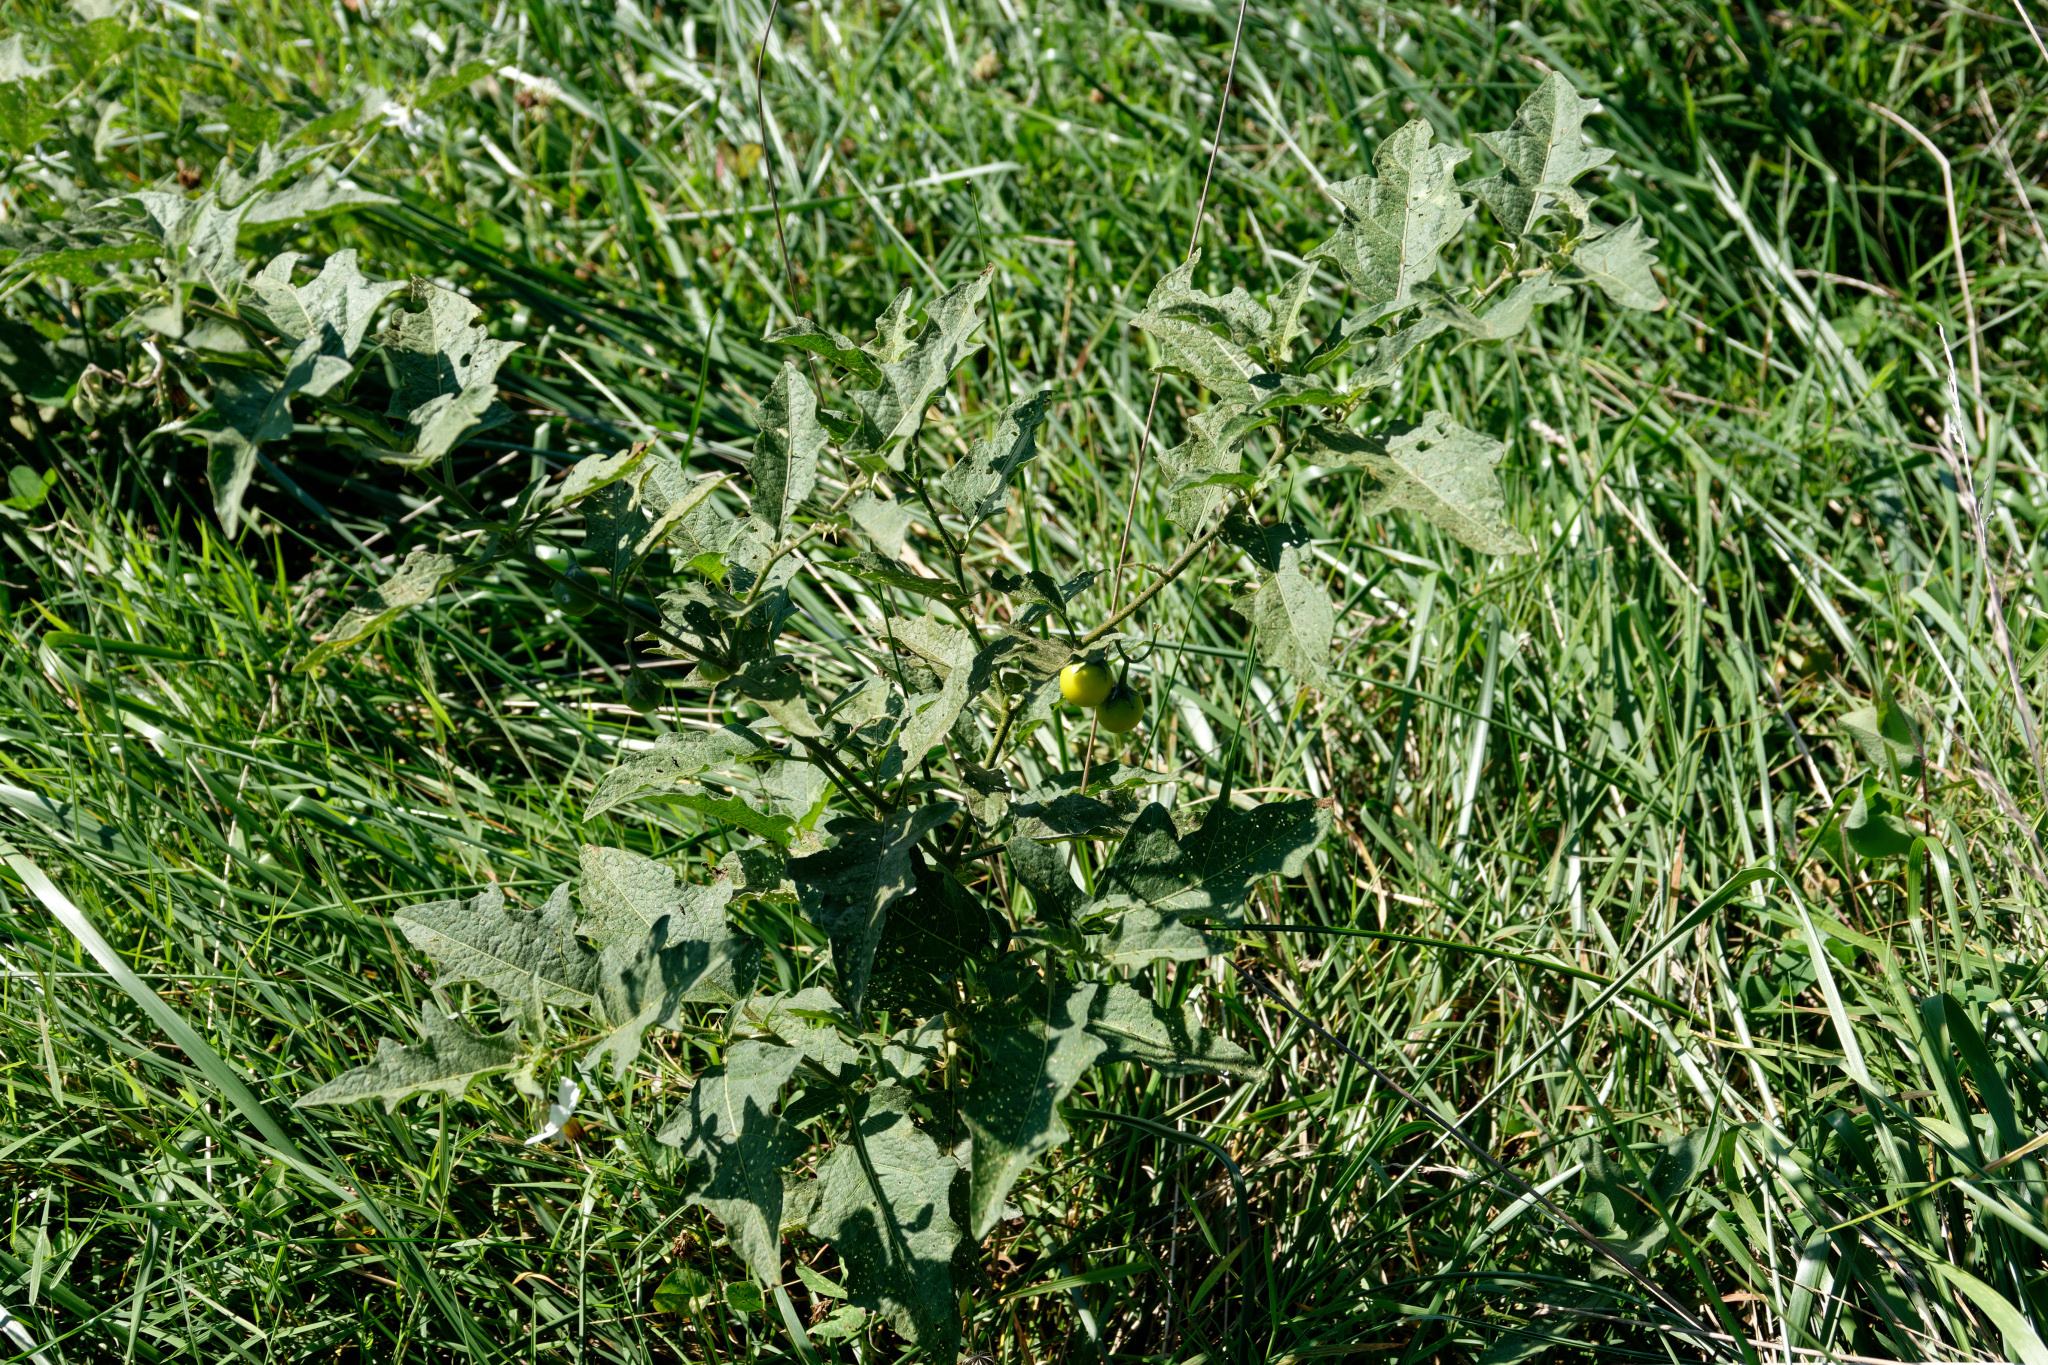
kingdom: Plantae
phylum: Tracheophyta
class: Magnoliopsida
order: Solanales
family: Solanaceae
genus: Solanum
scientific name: Solanum carolinense
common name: Horse-nettle
